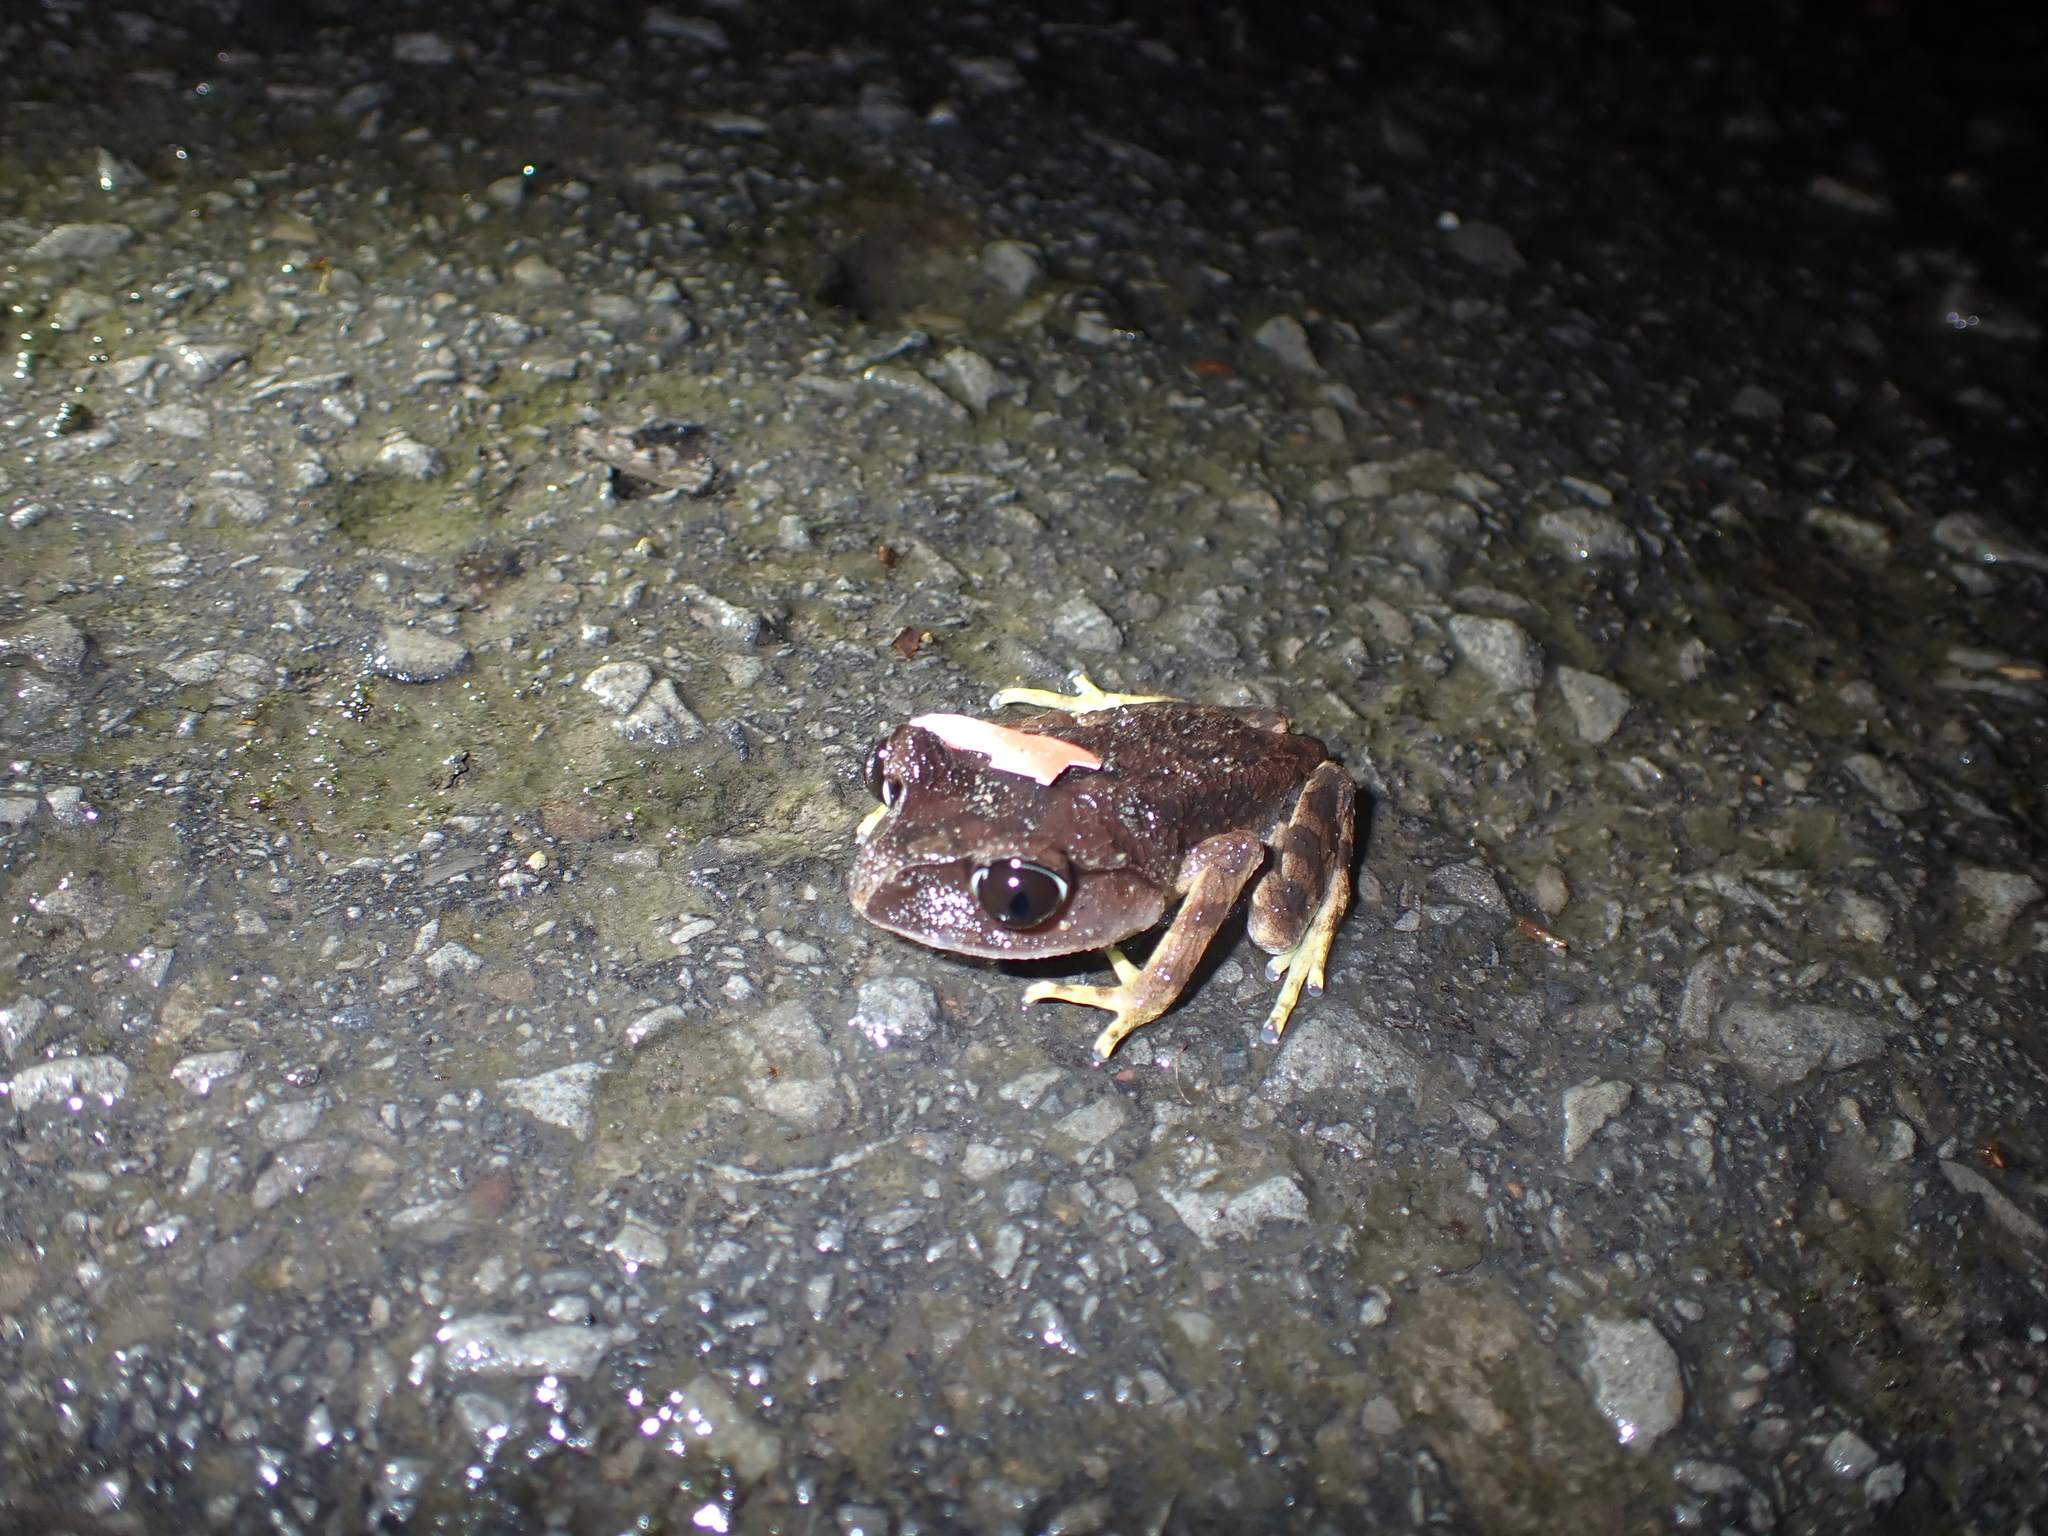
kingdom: Animalia
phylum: Chordata
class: Amphibia
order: Anura
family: Megophryidae
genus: Leptobrachium
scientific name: Leptobrachium montanum
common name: Montane litter frog
